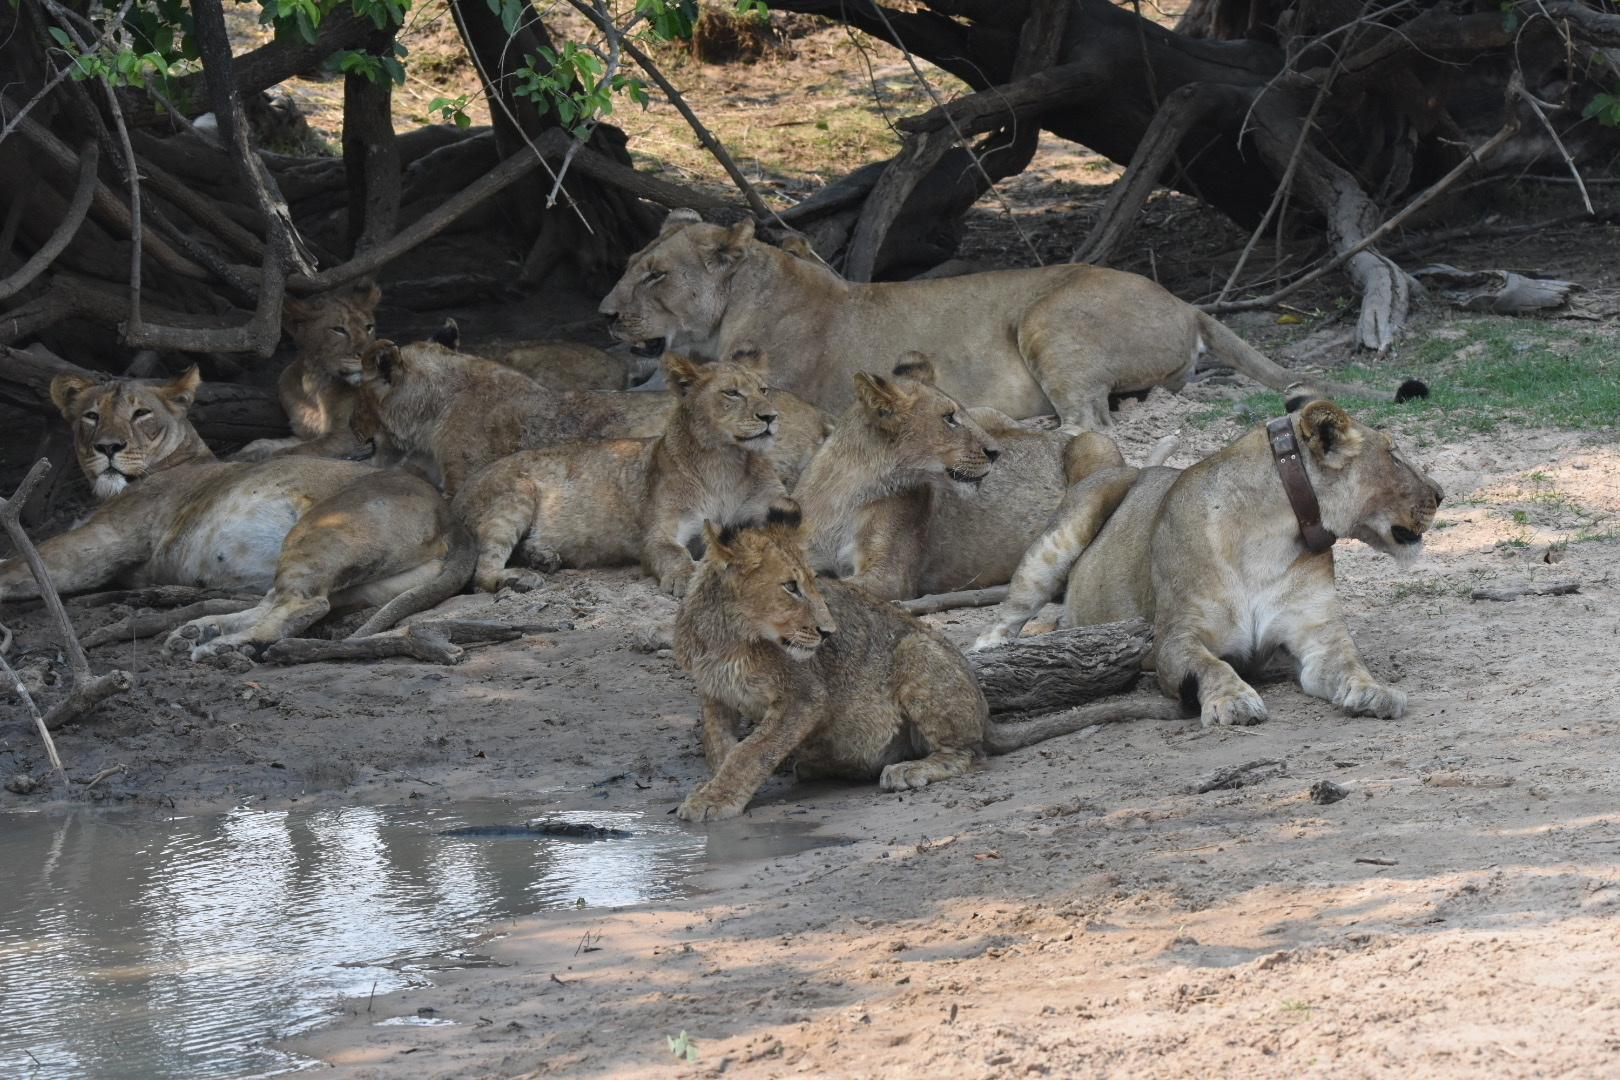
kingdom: Animalia
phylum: Chordata
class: Mammalia
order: Carnivora
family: Felidae
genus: Panthera
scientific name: Panthera leo
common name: Lion
